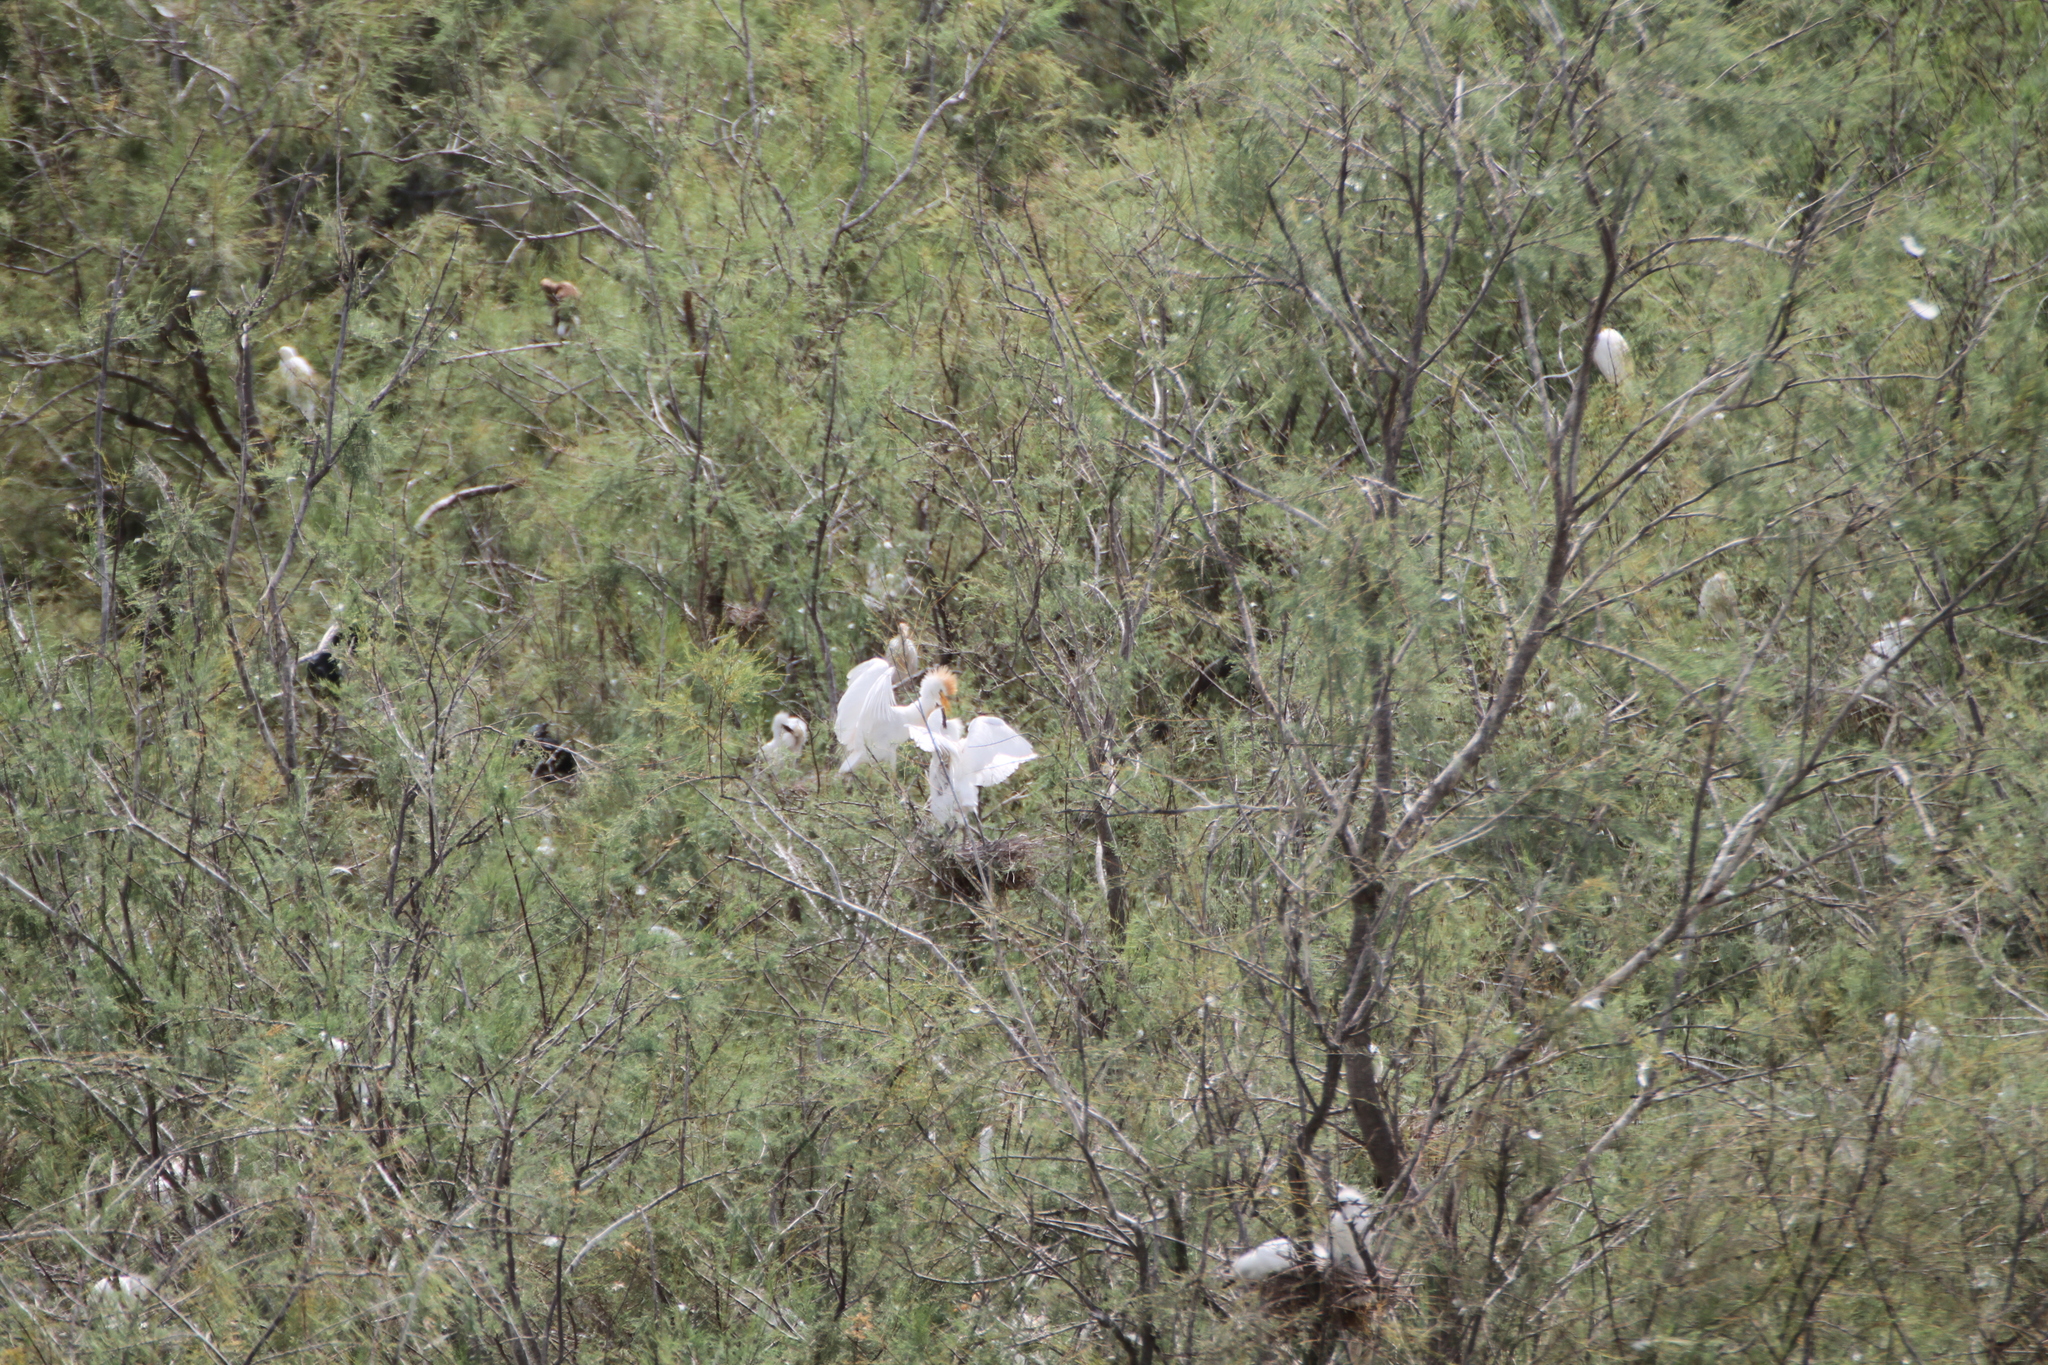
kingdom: Animalia
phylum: Chordata
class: Aves
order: Pelecaniformes
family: Ardeidae
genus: Bubulcus
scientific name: Bubulcus ibis
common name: Cattle egret
